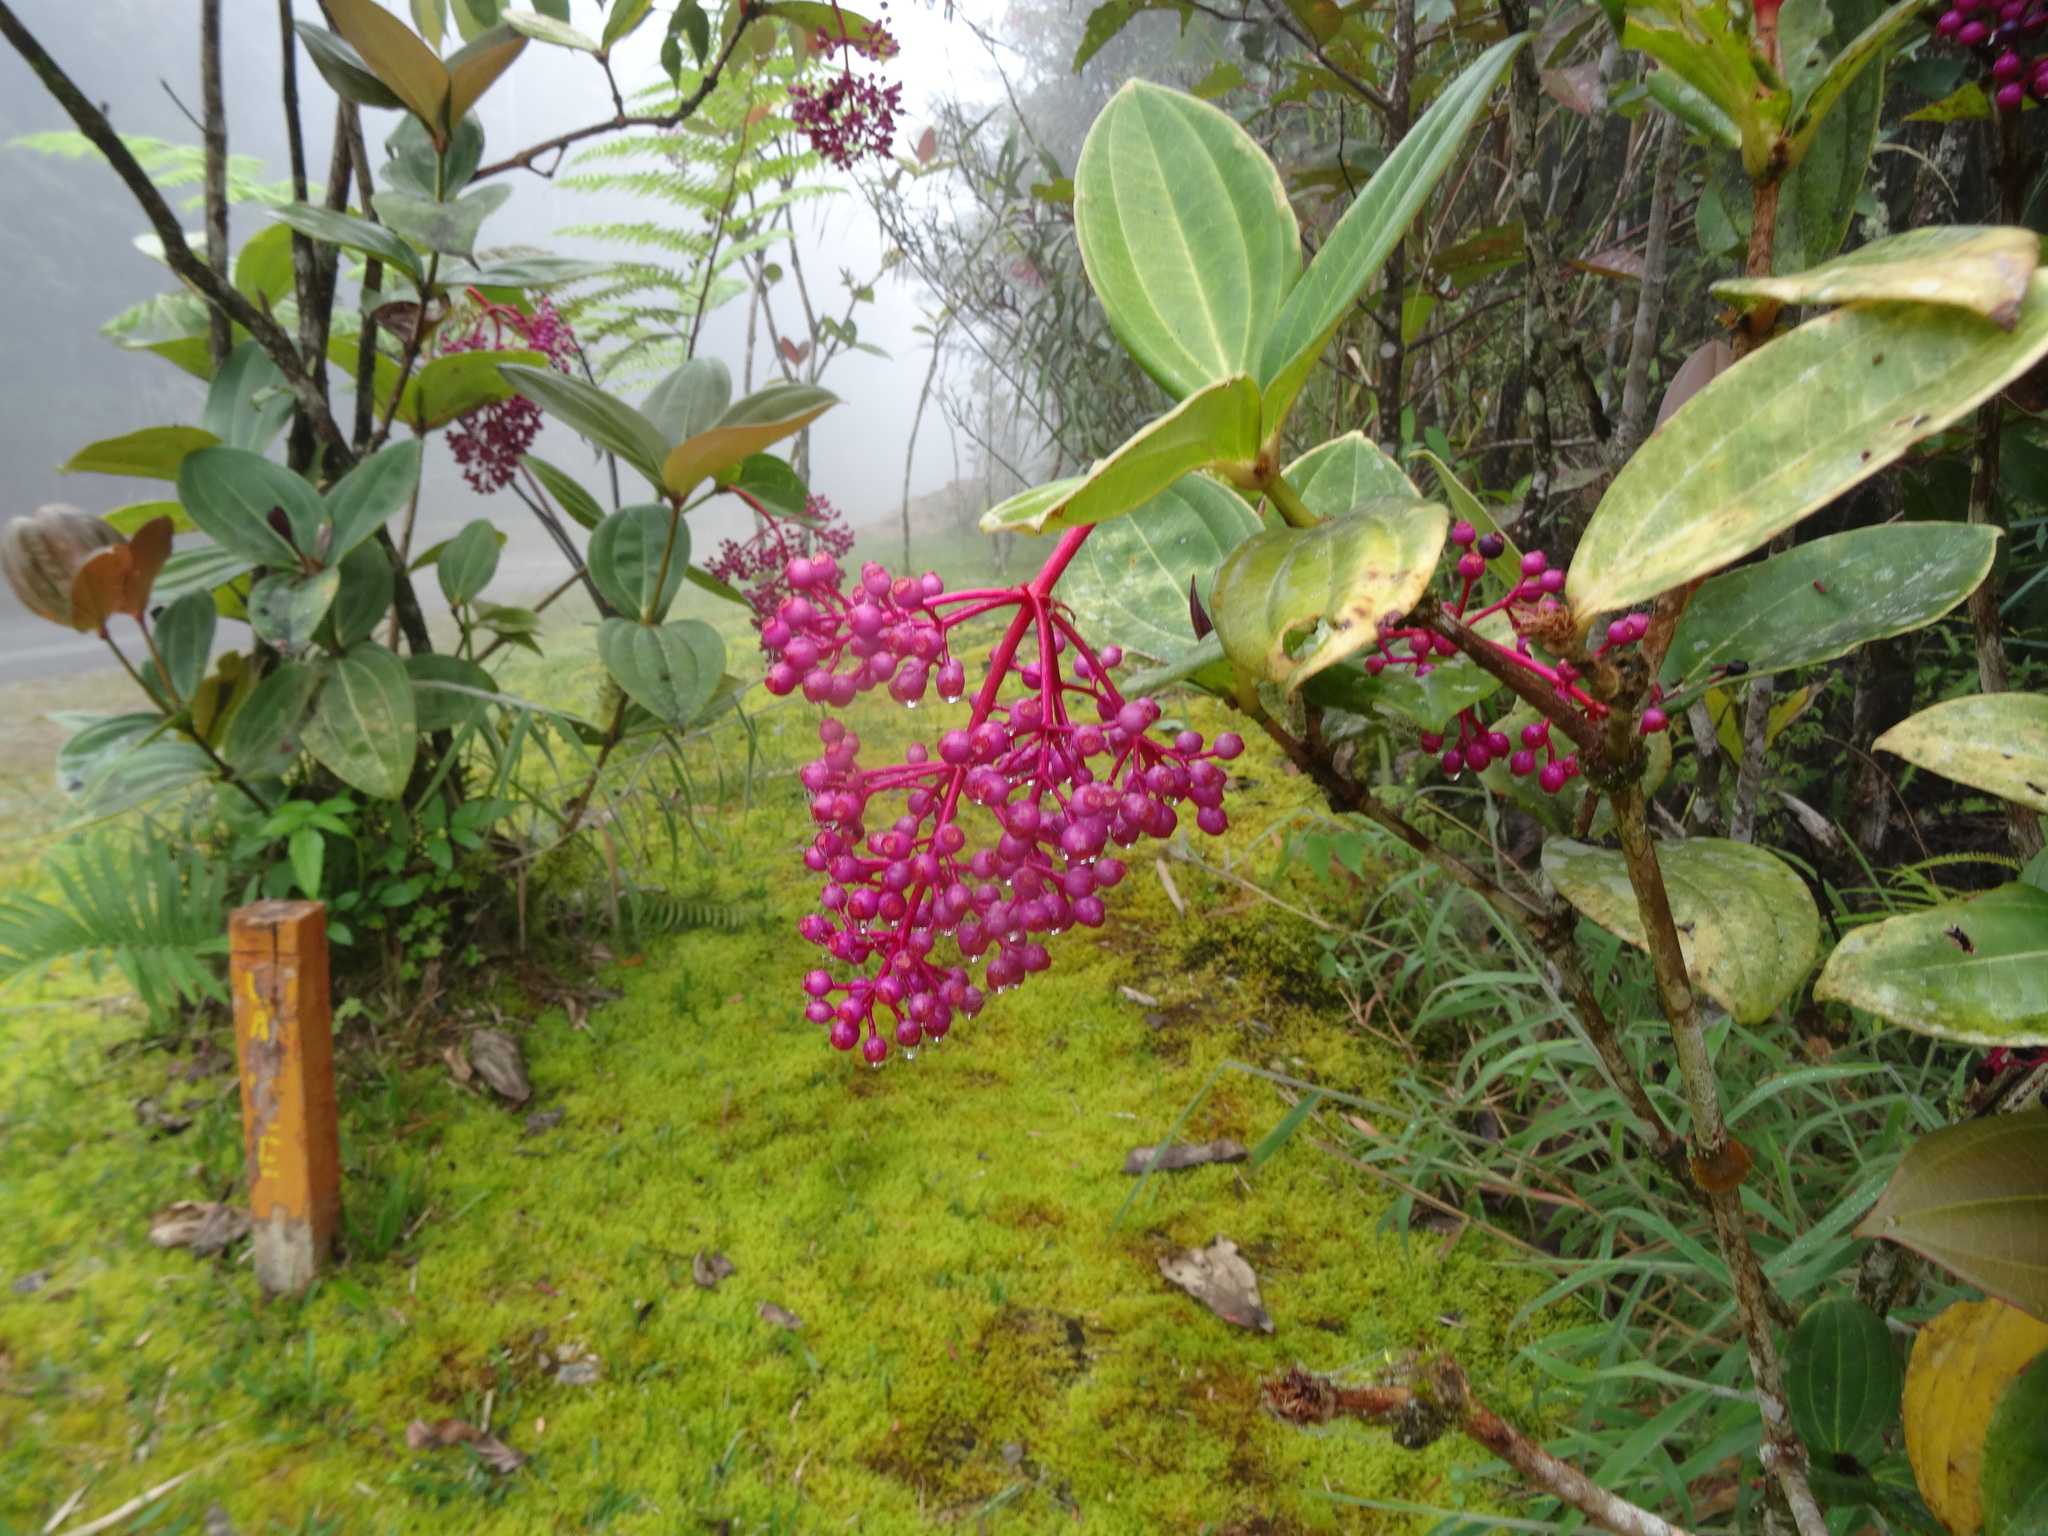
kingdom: Plantae
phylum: Tracheophyta
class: Magnoliopsida
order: Myrtales
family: Melastomataceae
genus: Medinilla
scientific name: Medinilla cumingii
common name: Chandelier tree
